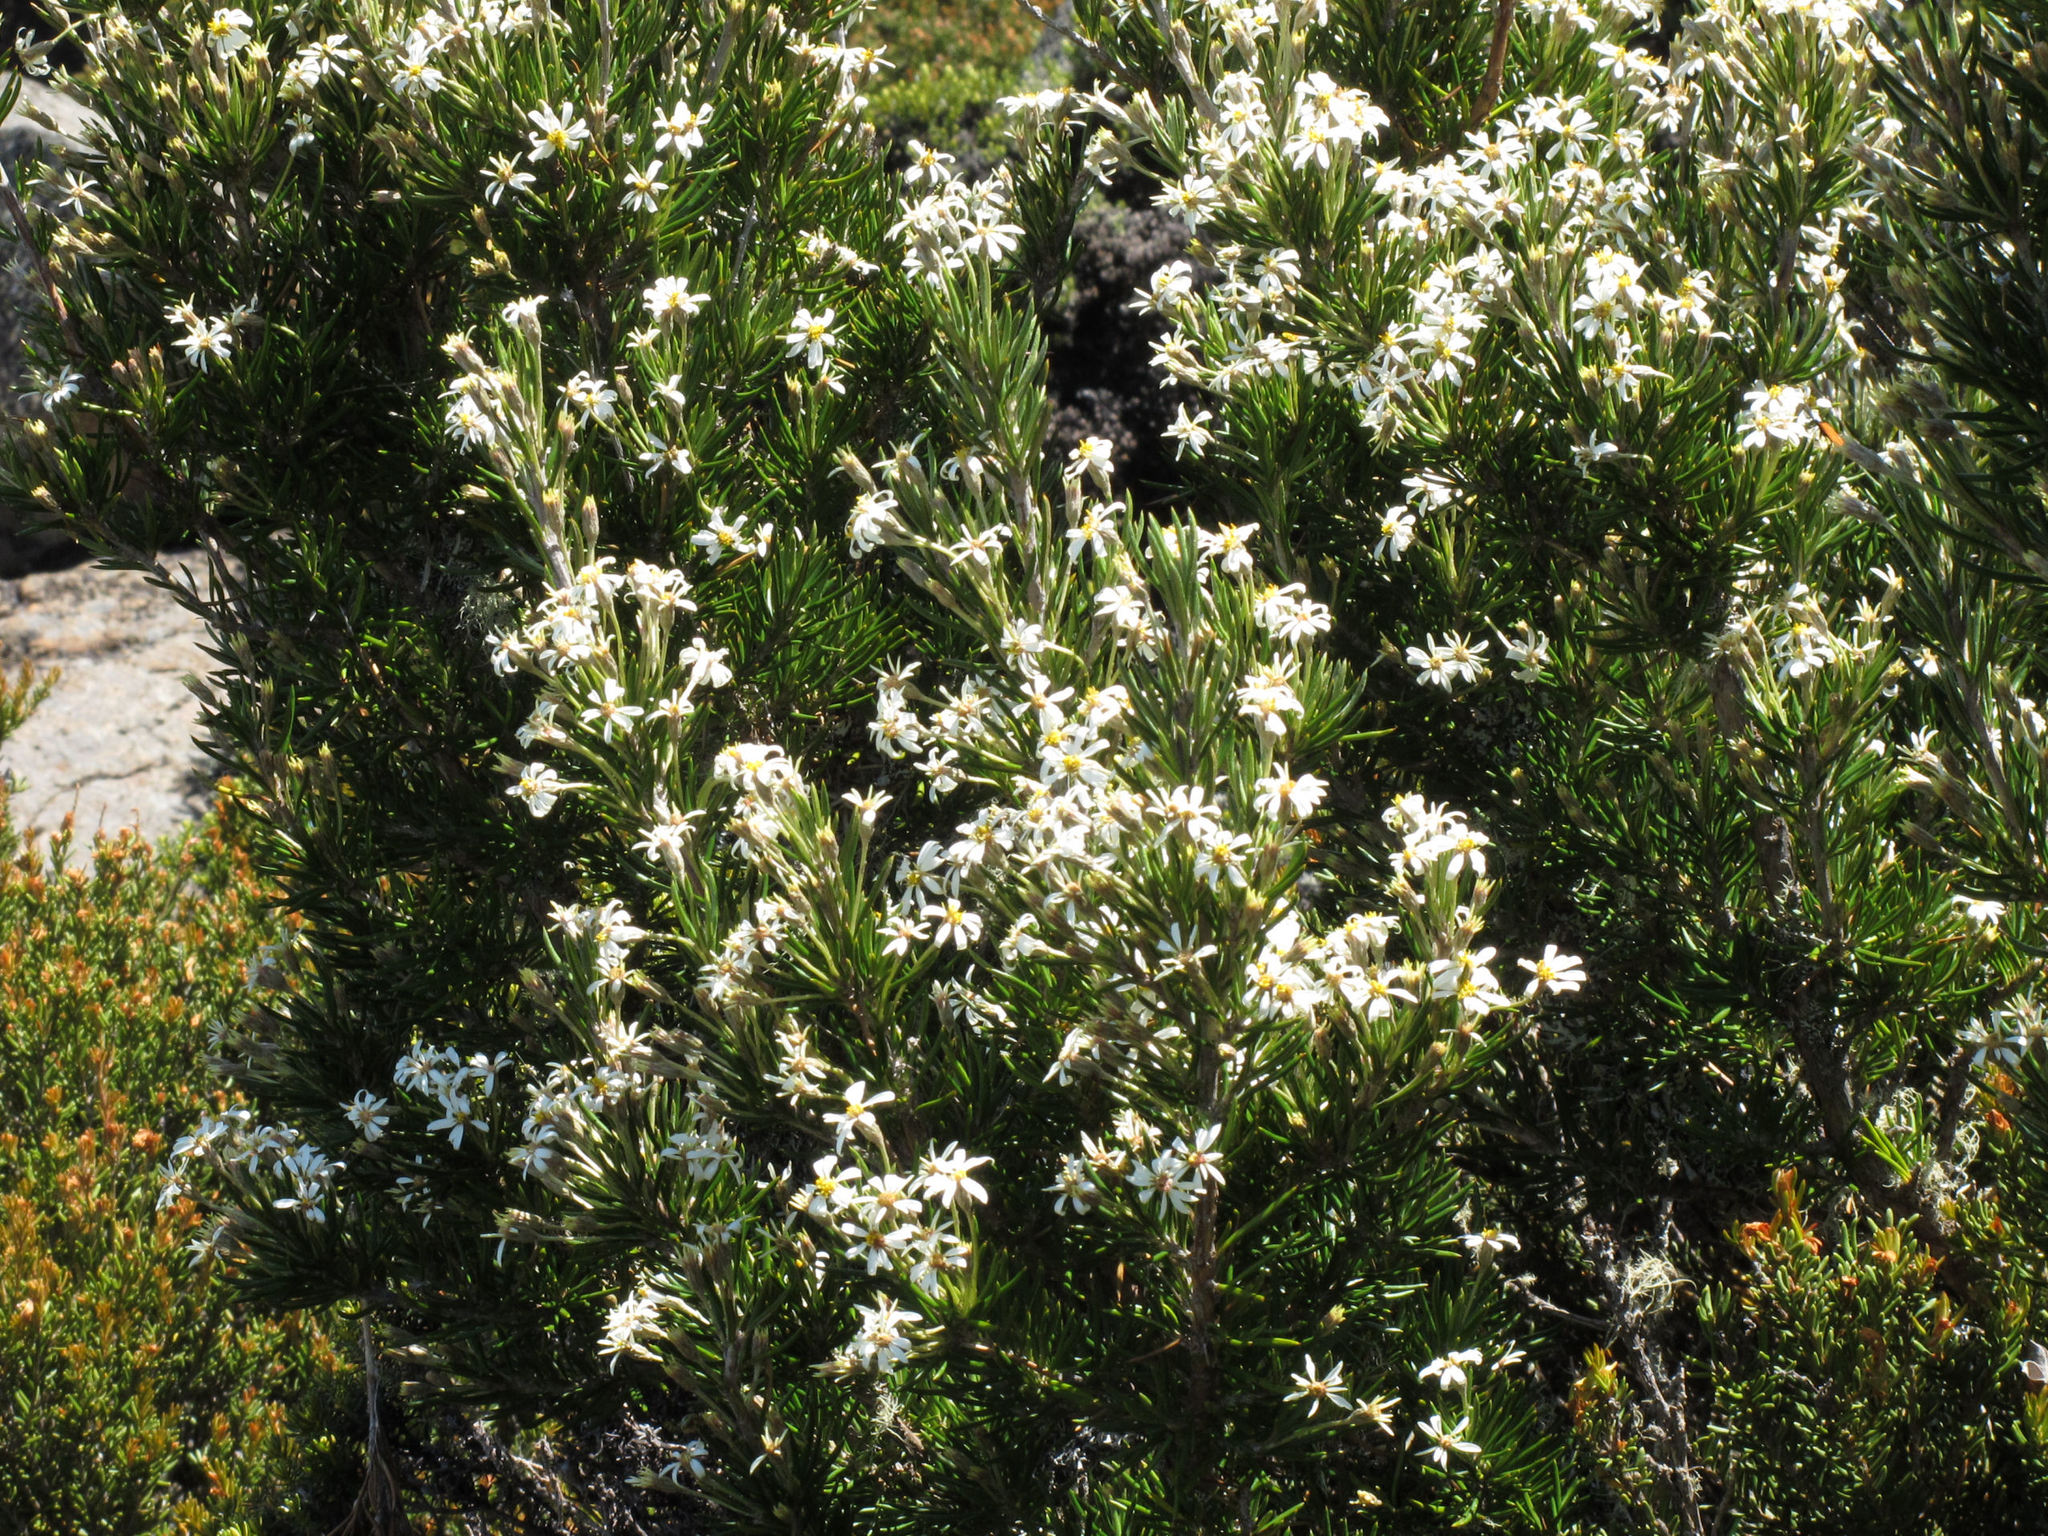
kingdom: Plantae
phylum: Tracheophyta
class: Magnoliopsida
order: Asterales
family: Asteraceae
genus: Olearia
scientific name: Olearia pinifolia
